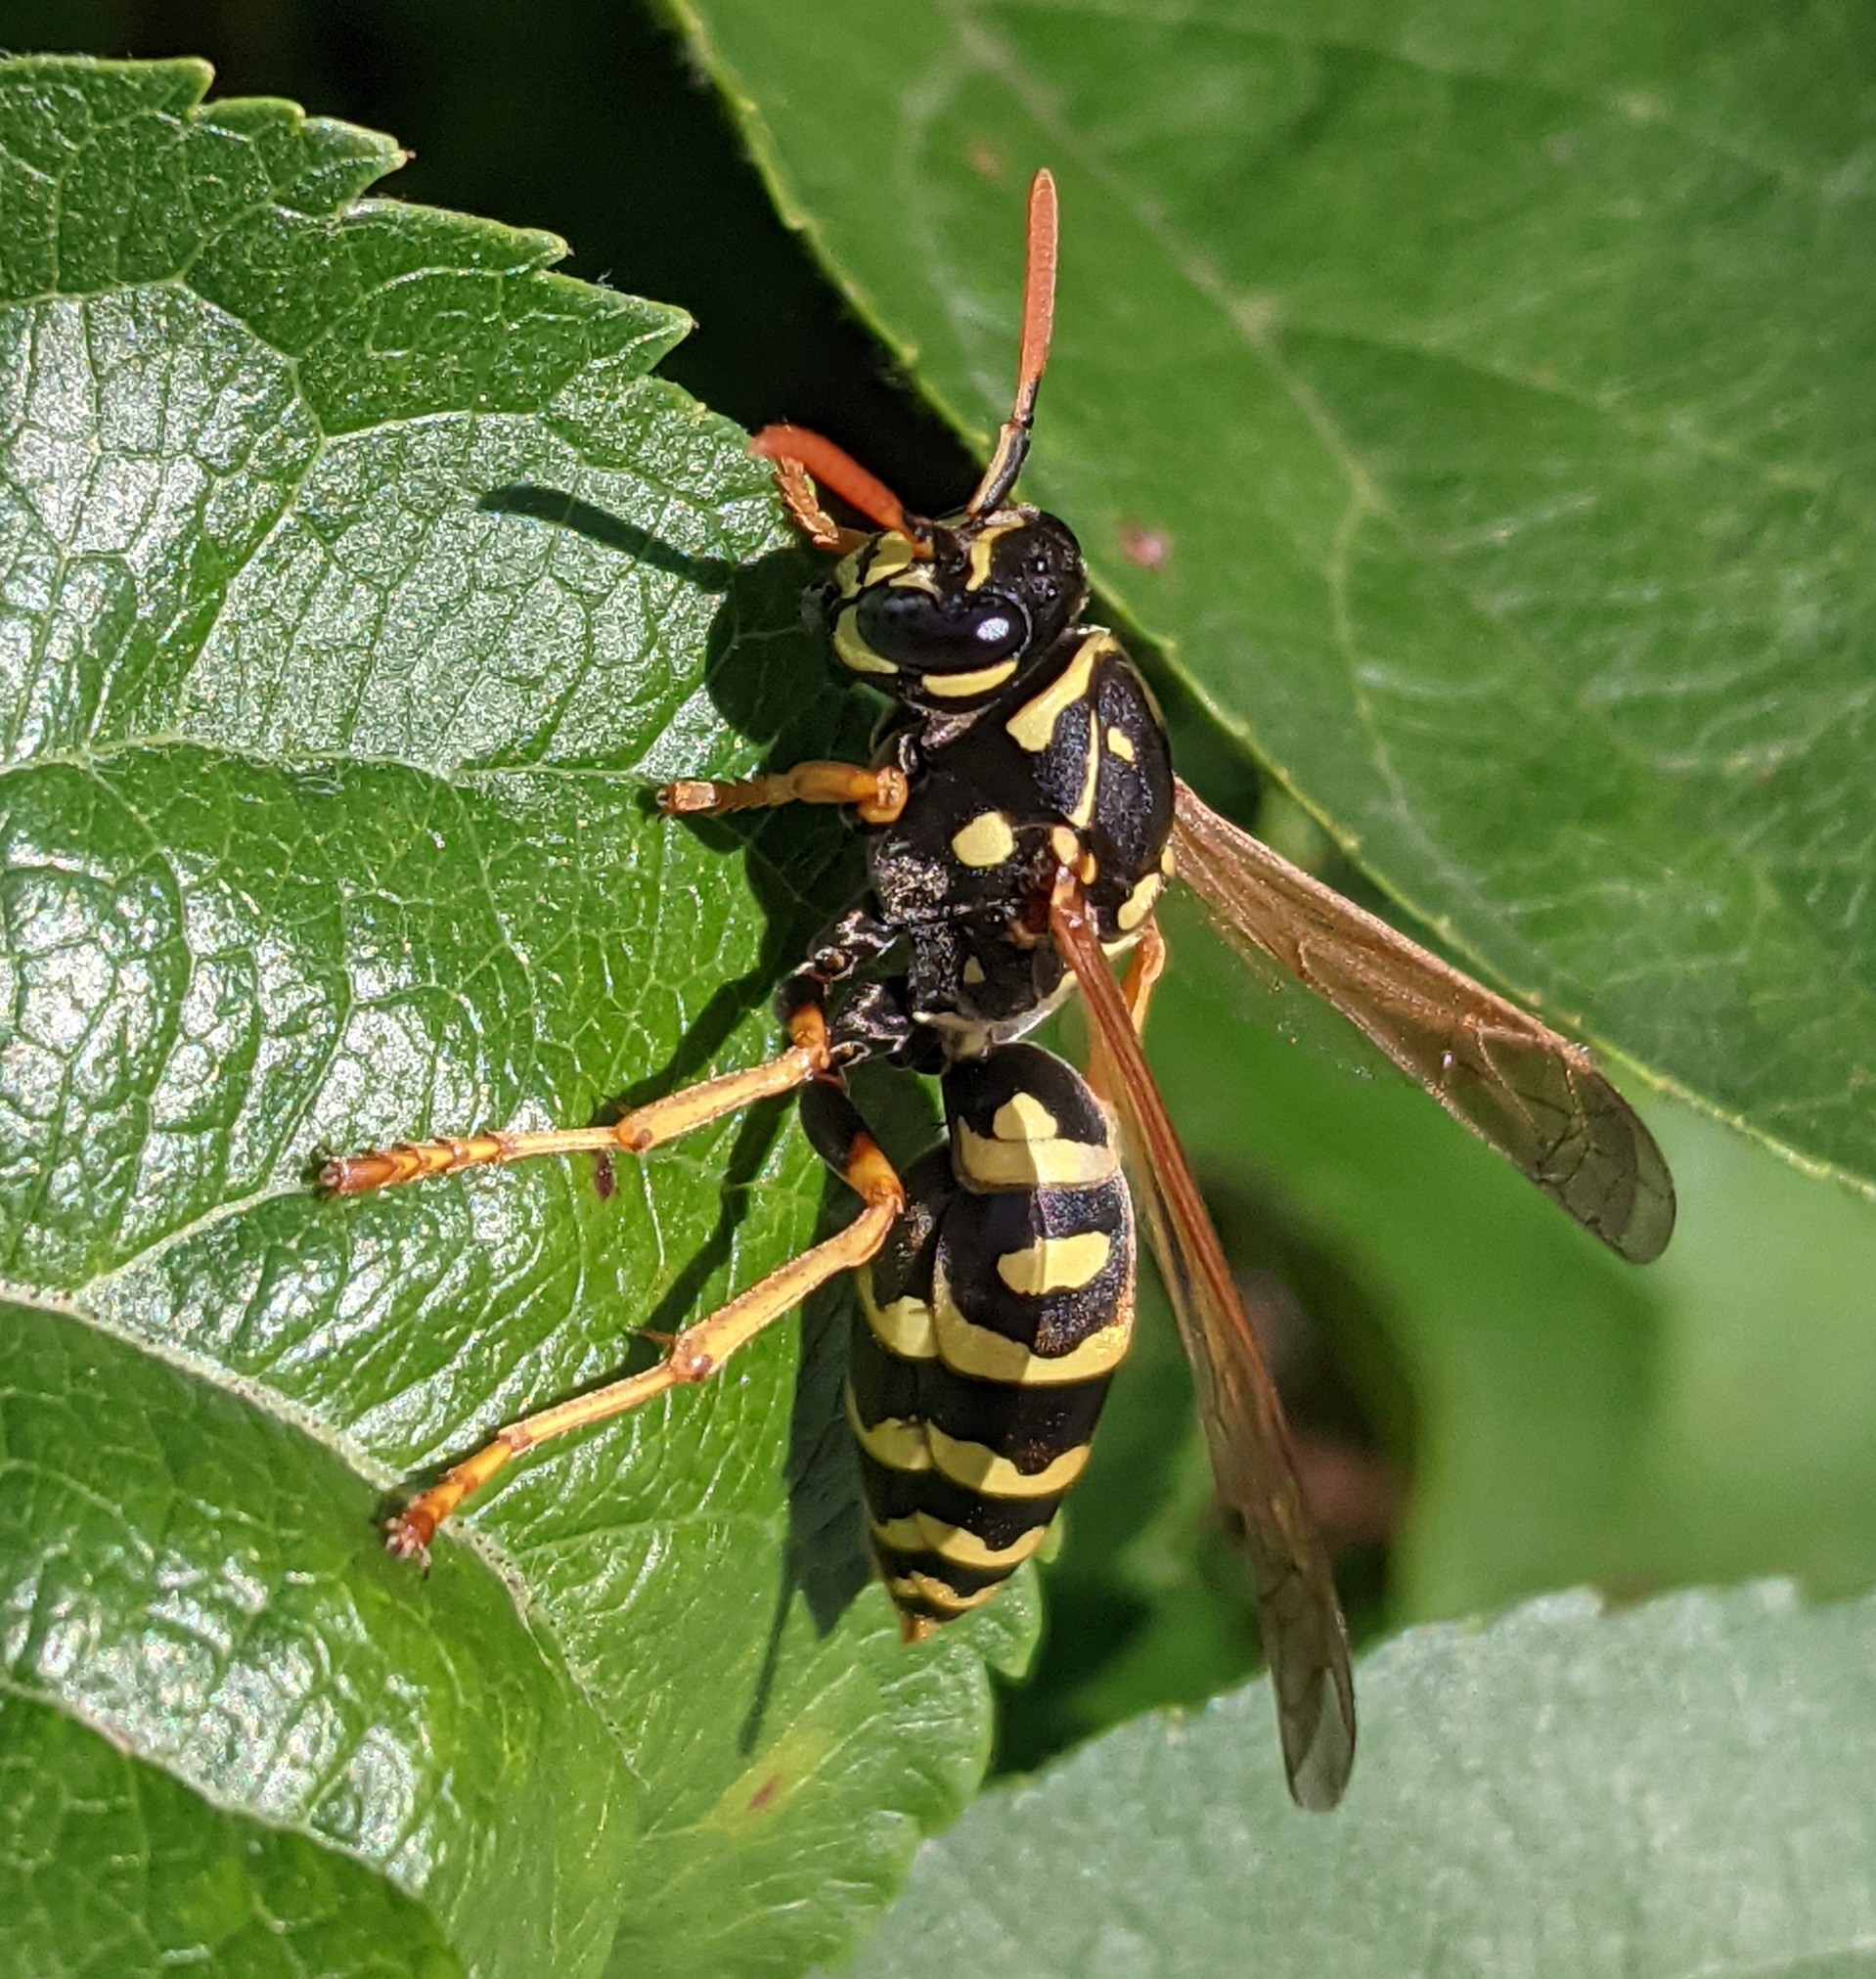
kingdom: Animalia
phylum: Arthropoda
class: Insecta
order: Hymenoptera
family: Eumenidae
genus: Polistes
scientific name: Polistes dominula
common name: Paper wasp
